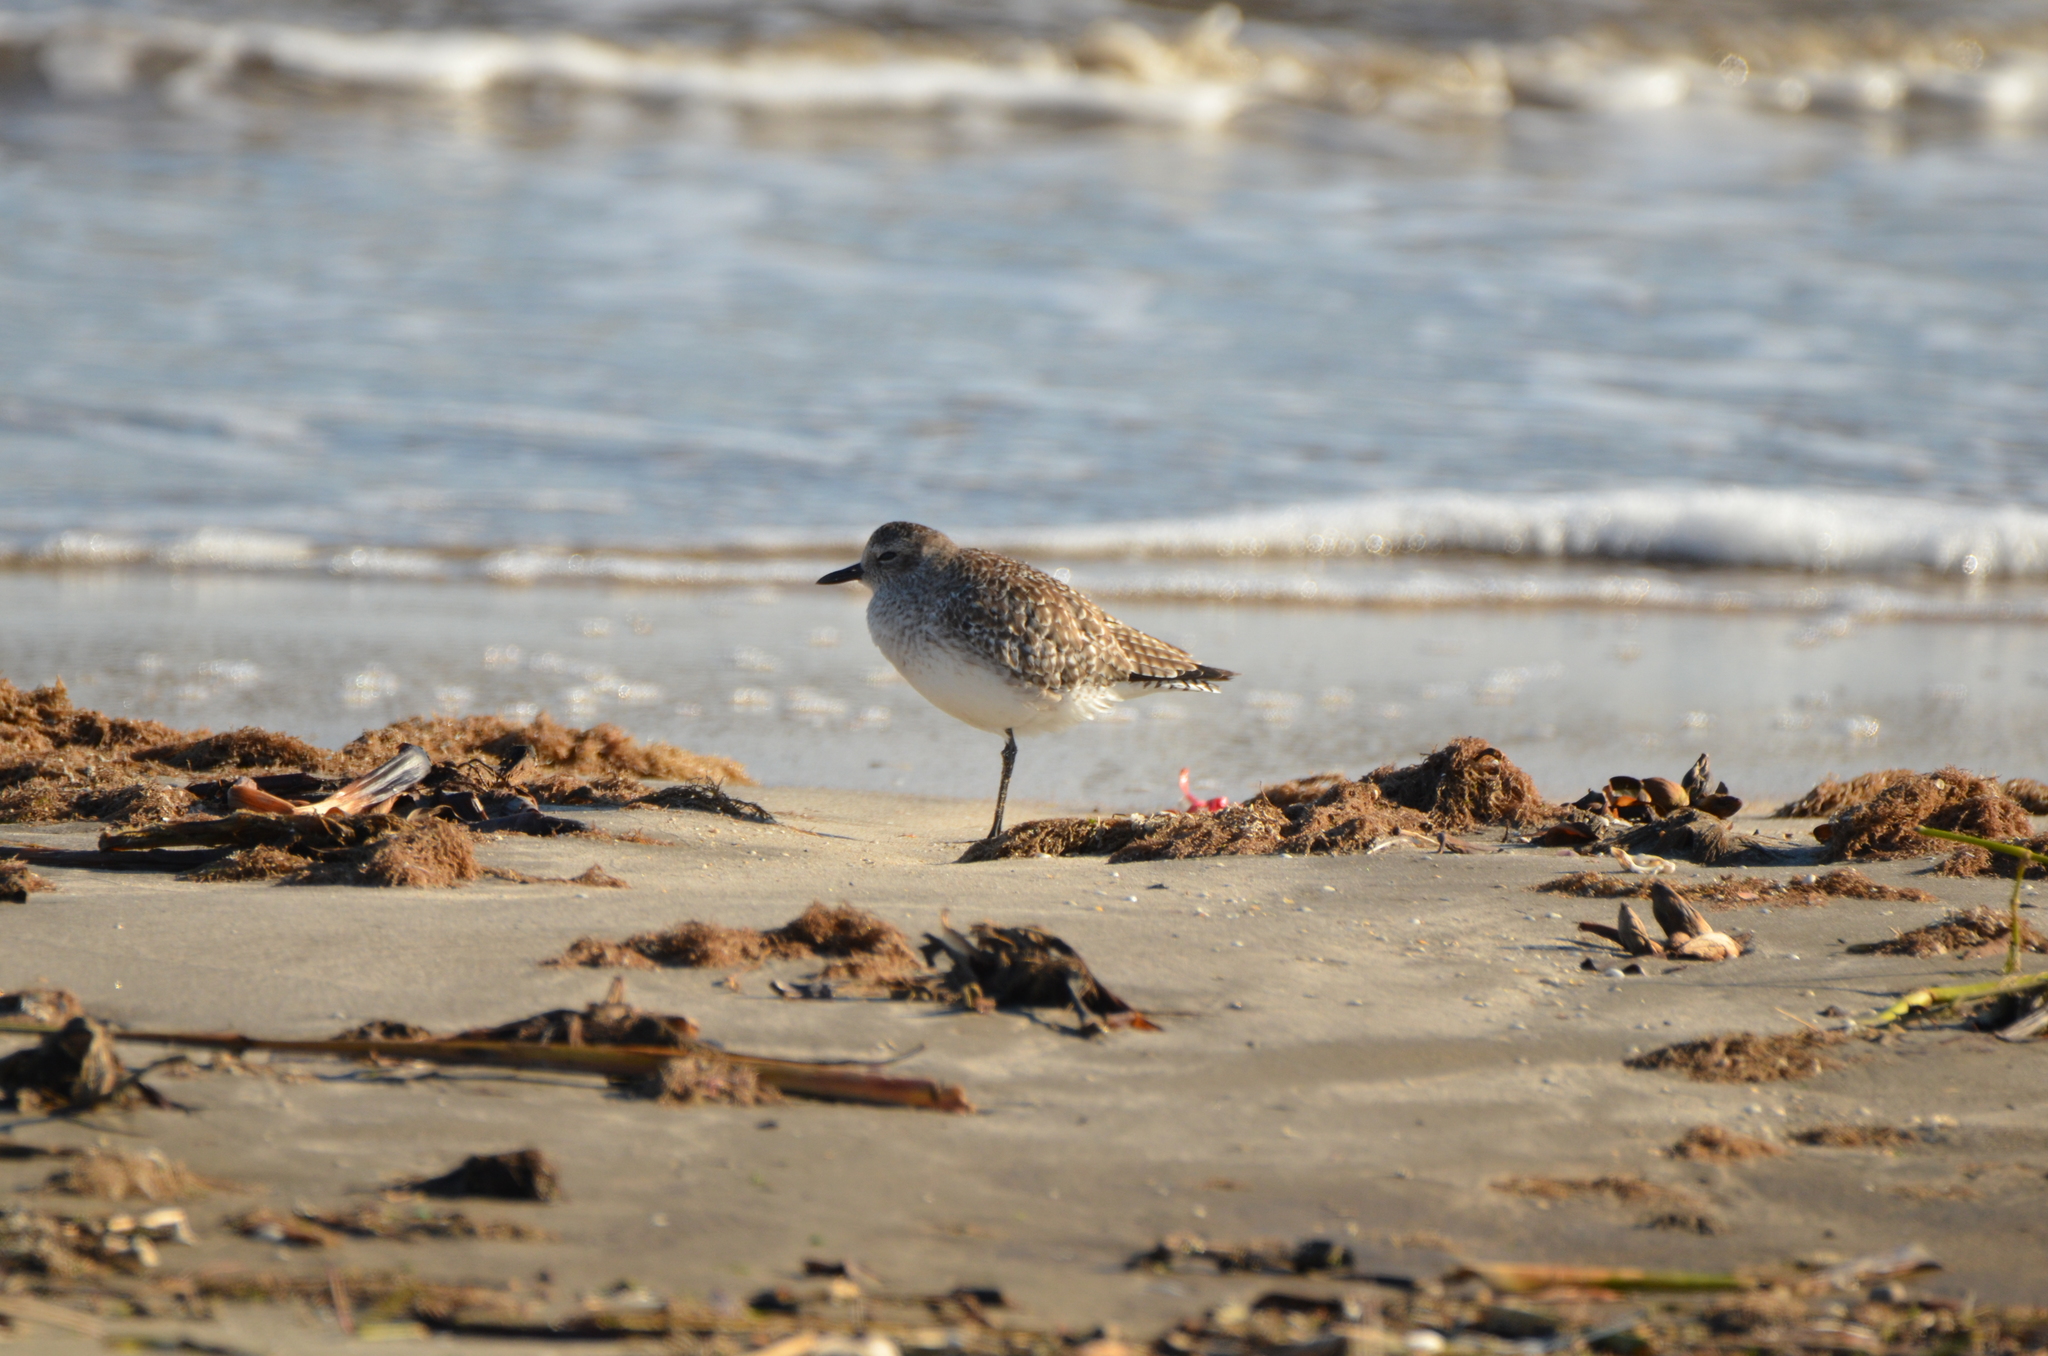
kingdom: Animalia
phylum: Chordata
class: Aves
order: Charadriiformes
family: Charadriidae
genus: Pluvialis
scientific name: Pluvialis squatarola
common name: Grey plover
